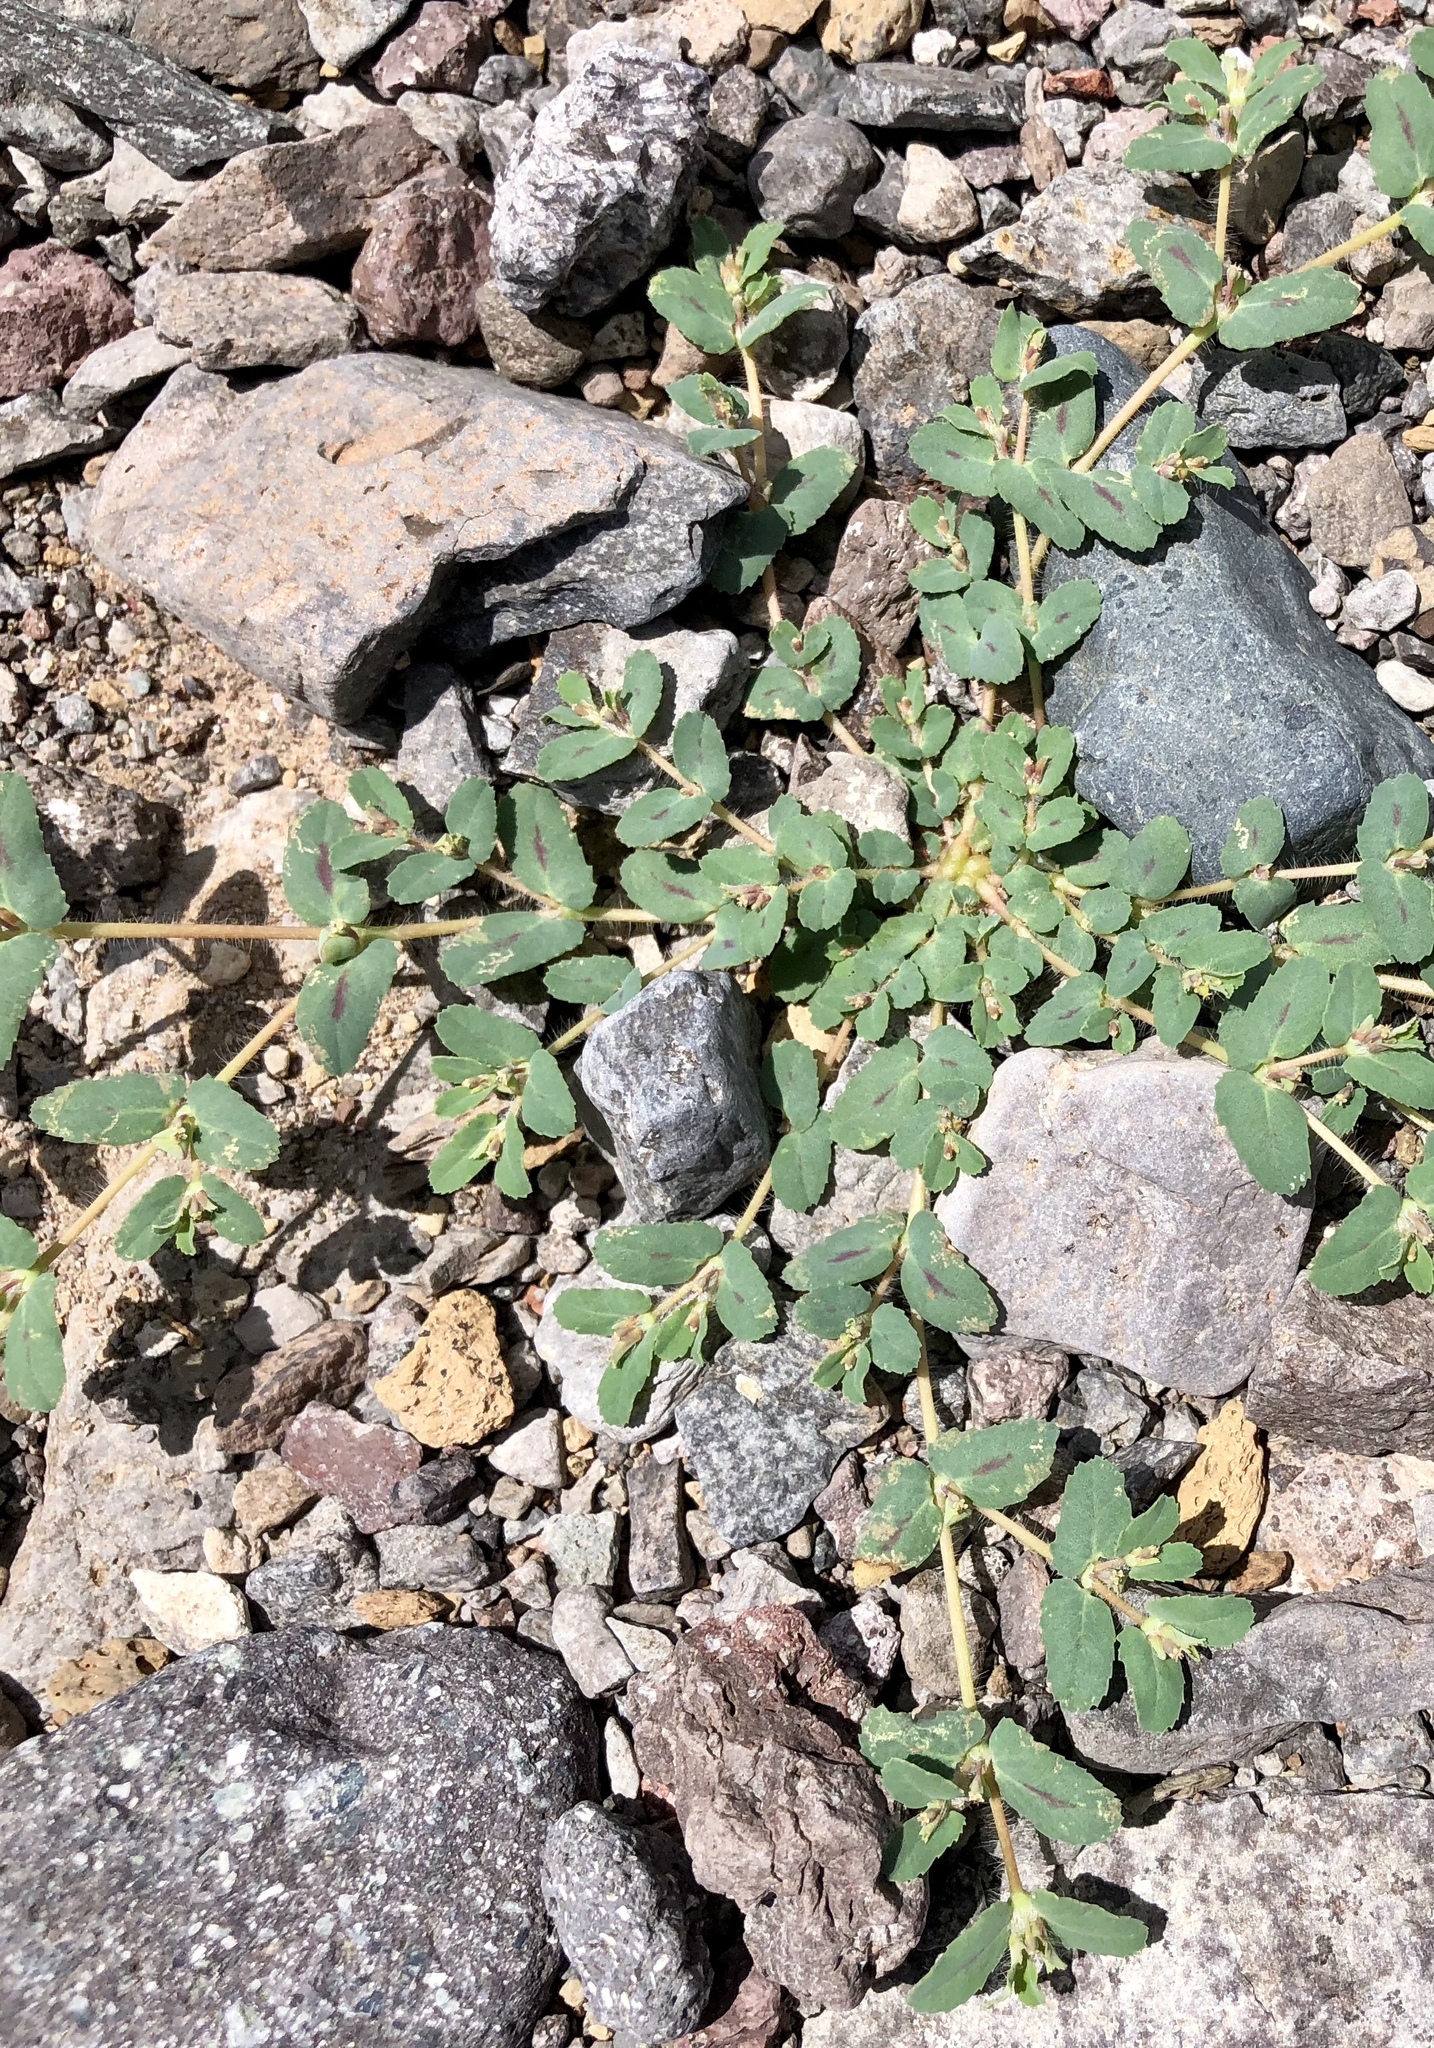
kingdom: Plantae
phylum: Tracheophyta
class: Magnoliopsida
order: Malpighiales
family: Euphorbiaceae
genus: Euphorbia
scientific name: Euphorbia serrula
